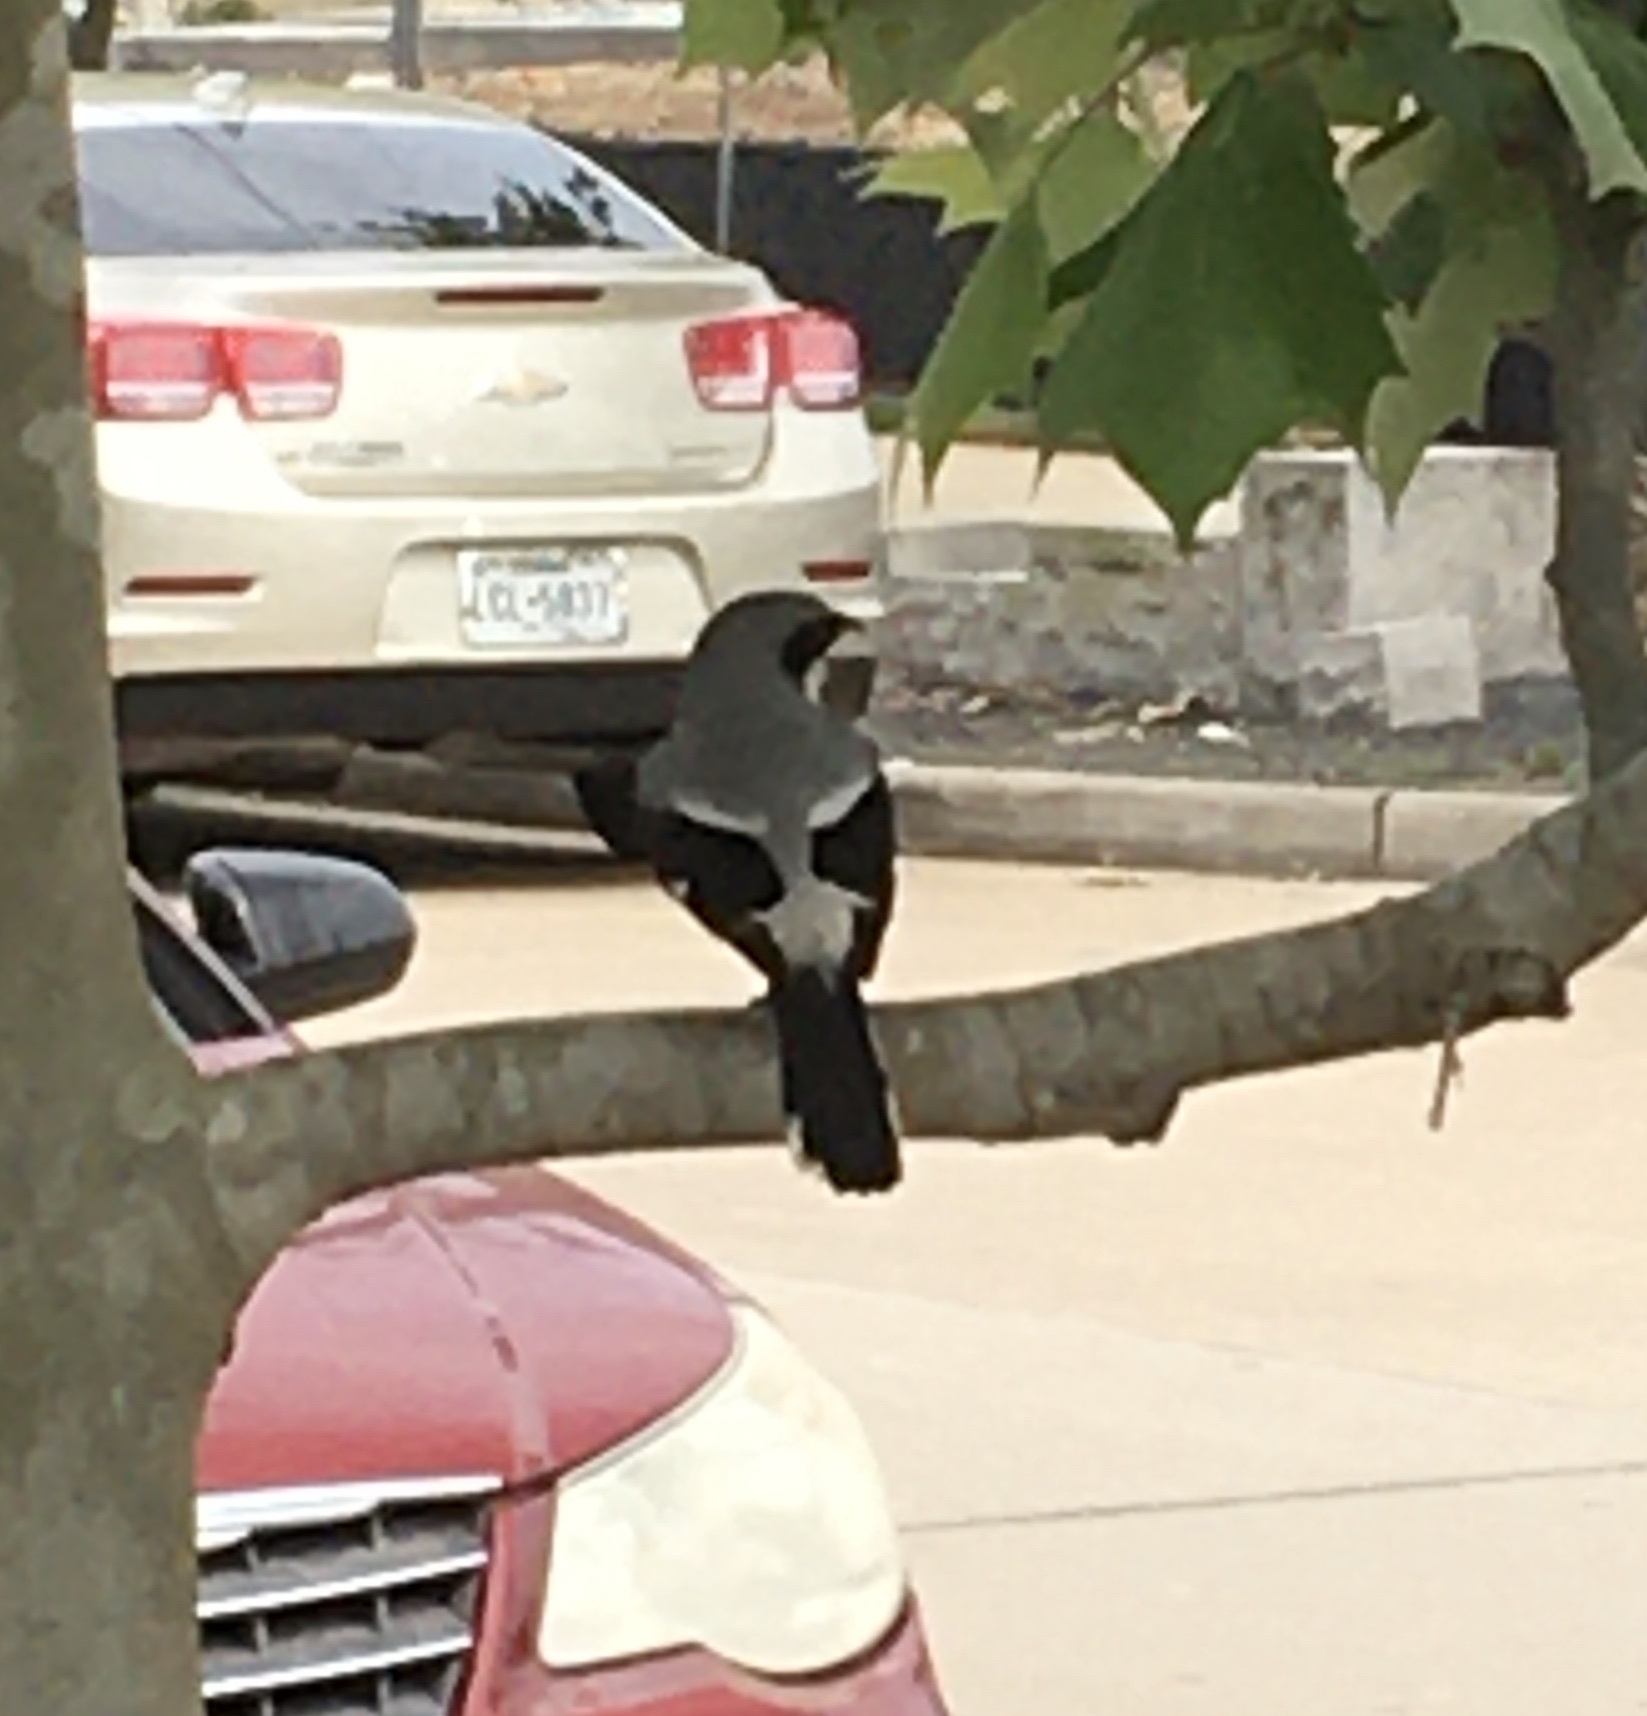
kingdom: Animalia
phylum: Chordata
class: Aves
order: Passeriformes
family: Laniidae
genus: Lanius
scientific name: Lanius ludovicianus
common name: Loggerhead shrike
